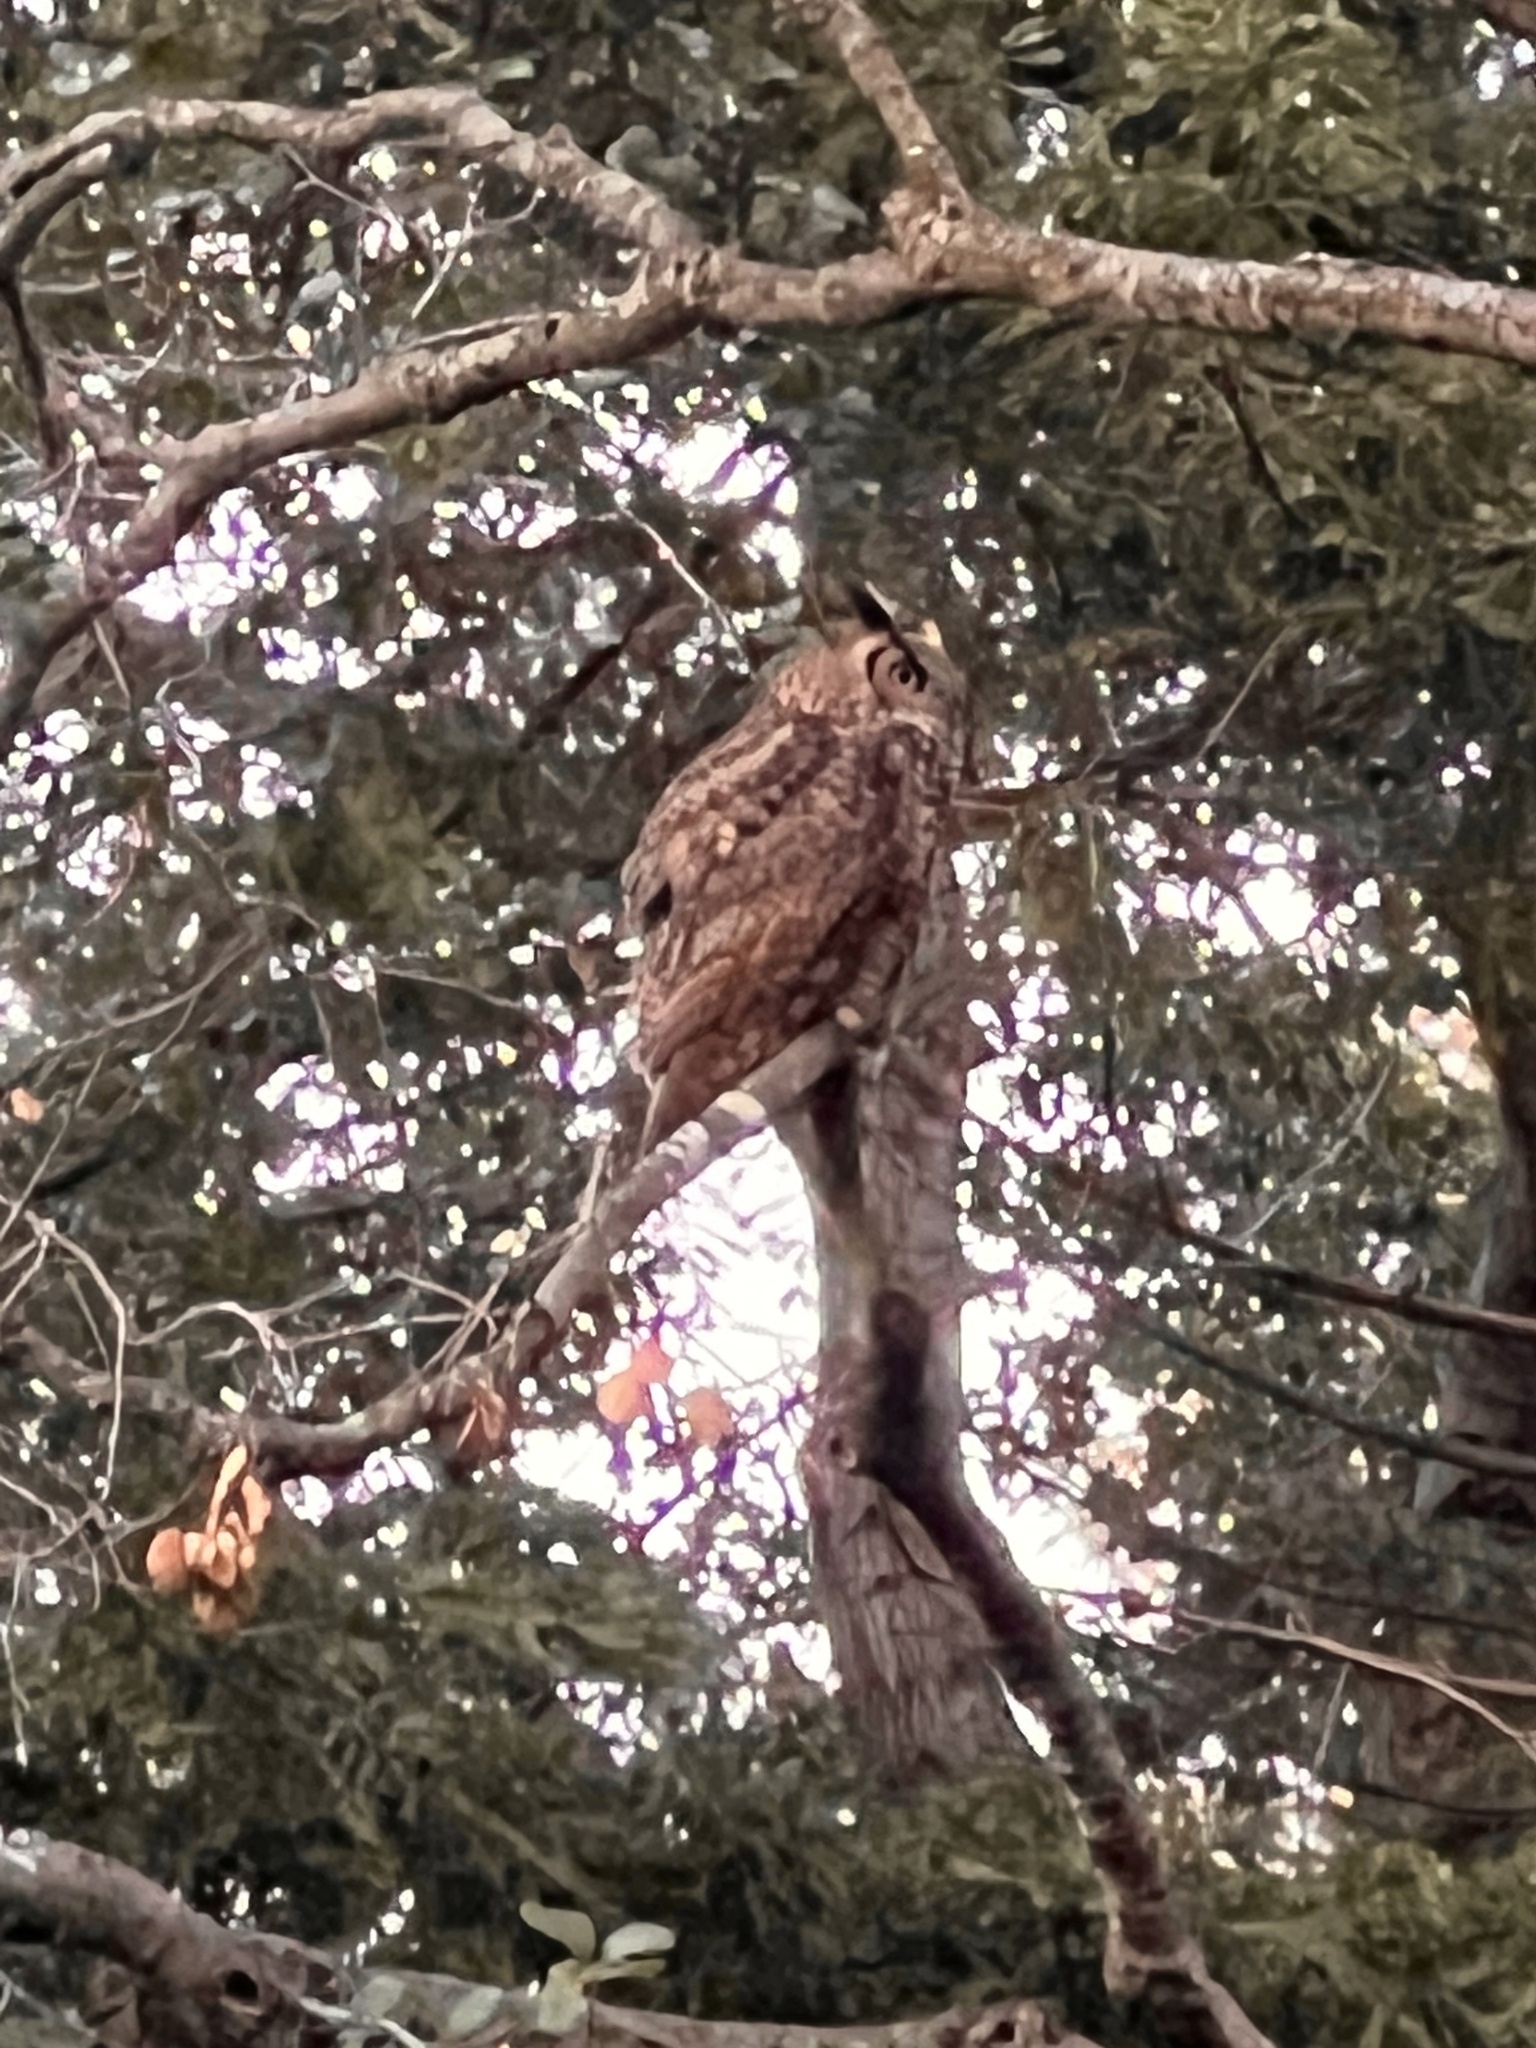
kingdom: Animalia
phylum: Chordata
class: Aves
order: Strigiformes
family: Strigidae
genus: Bubo
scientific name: Bubo virginianus
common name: Great horned owl
